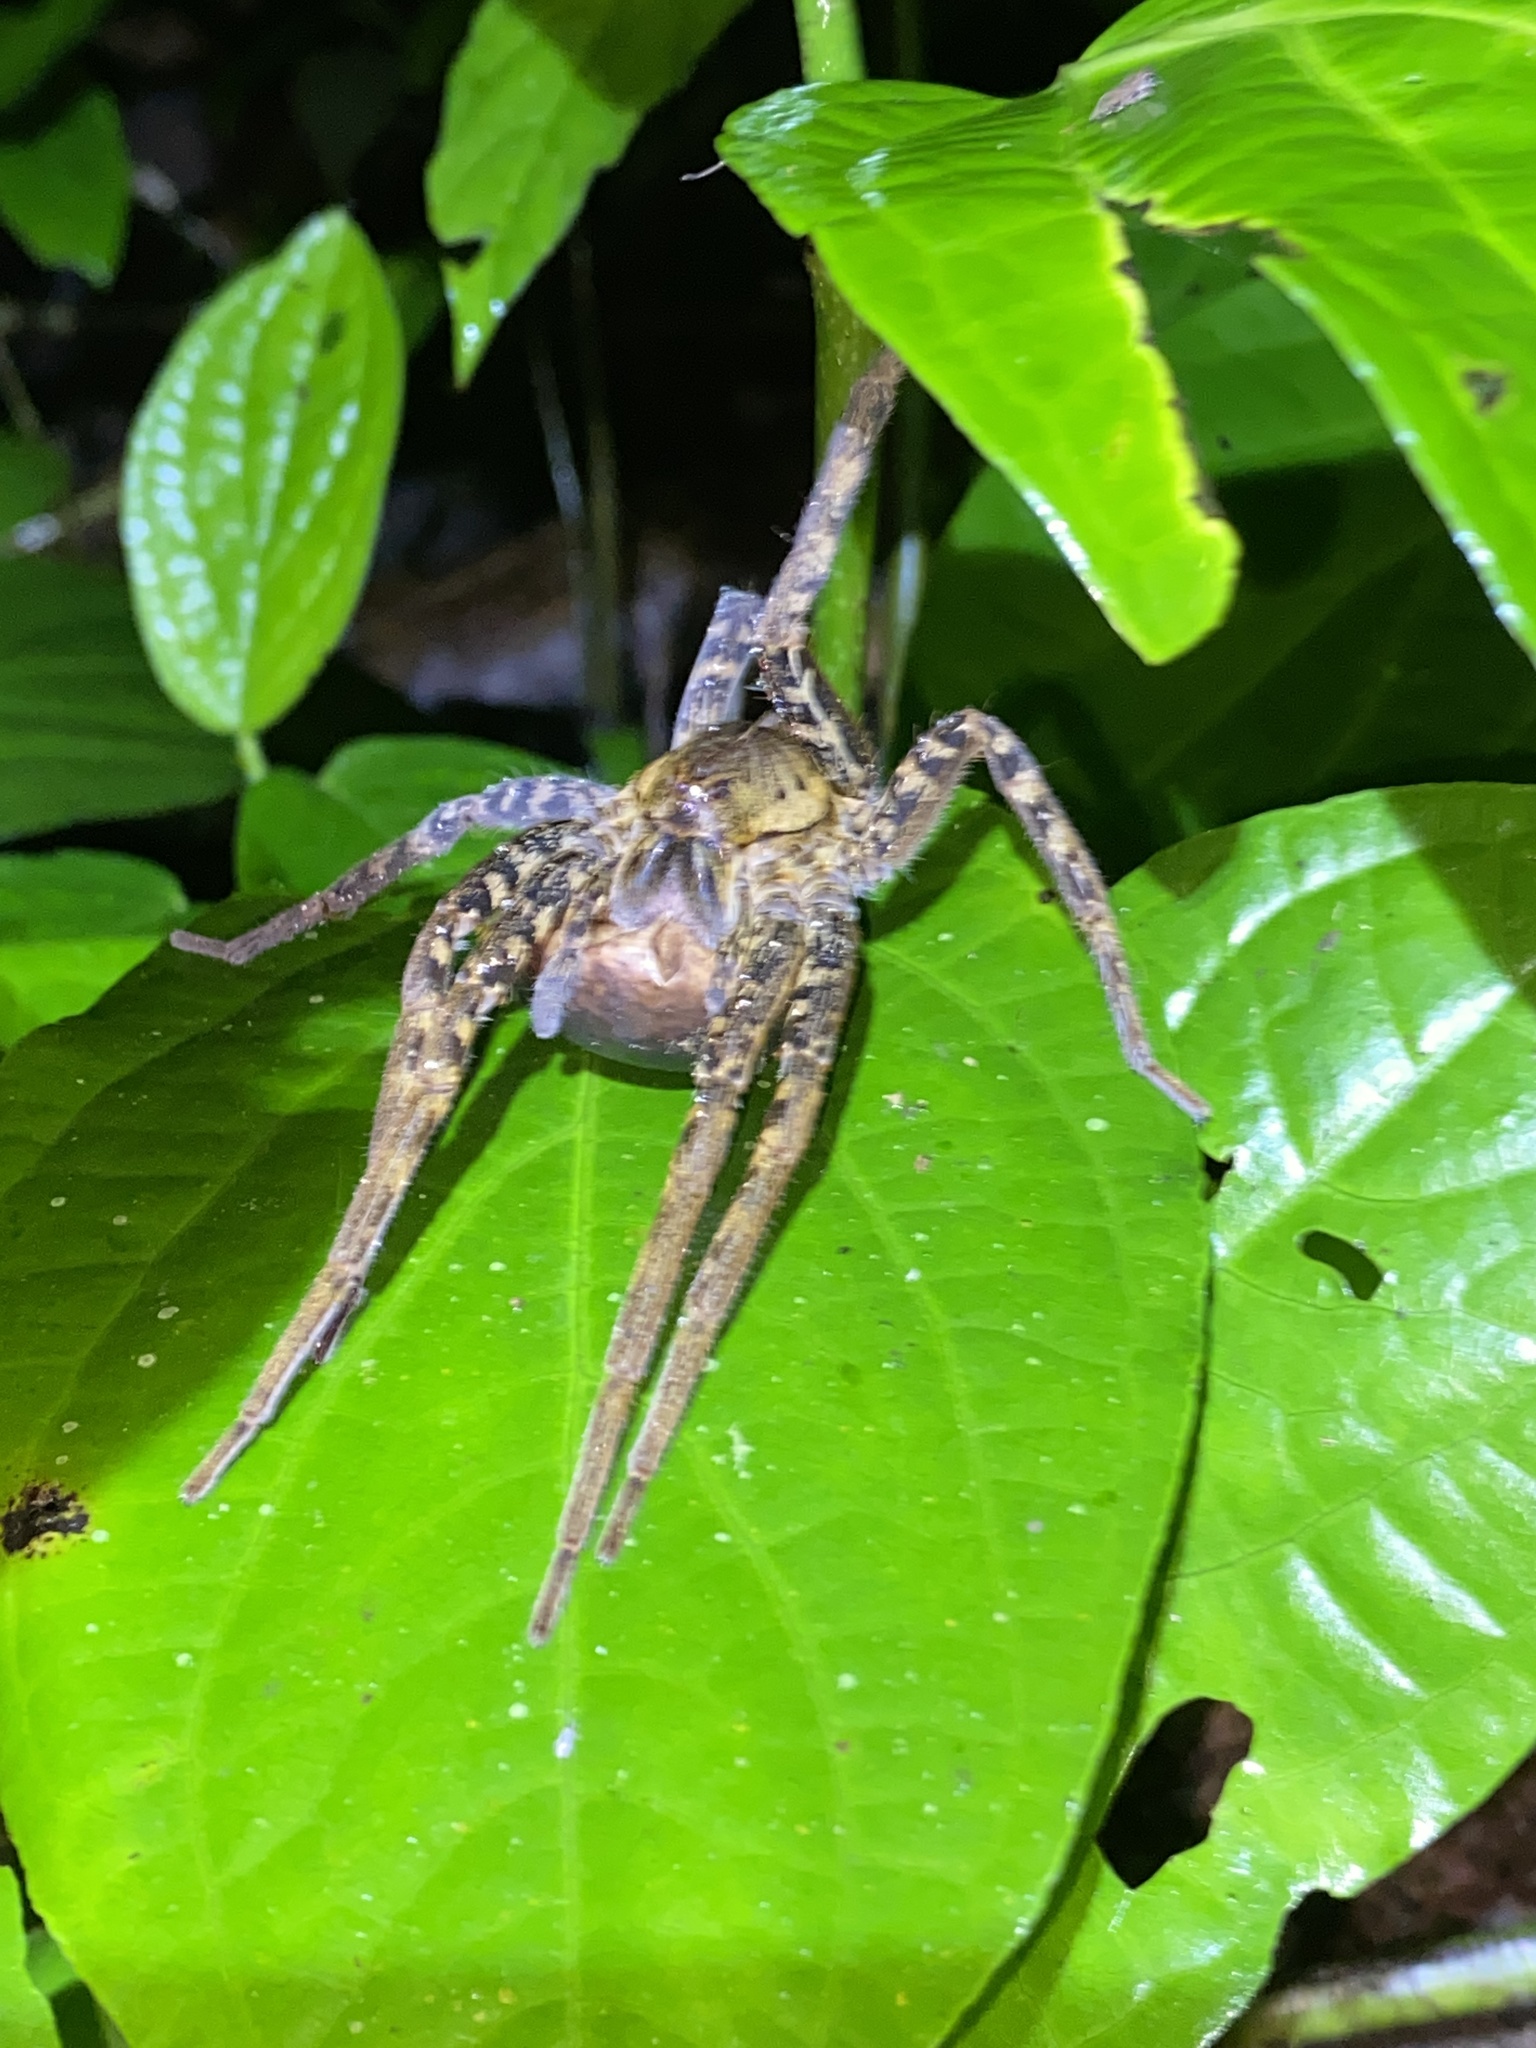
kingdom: Animalia
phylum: Arthropoda
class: Arachnida
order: Araneae
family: Ctenidae
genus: Ancylometes
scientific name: Ancylometes bogotensis
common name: Wandering spiders
